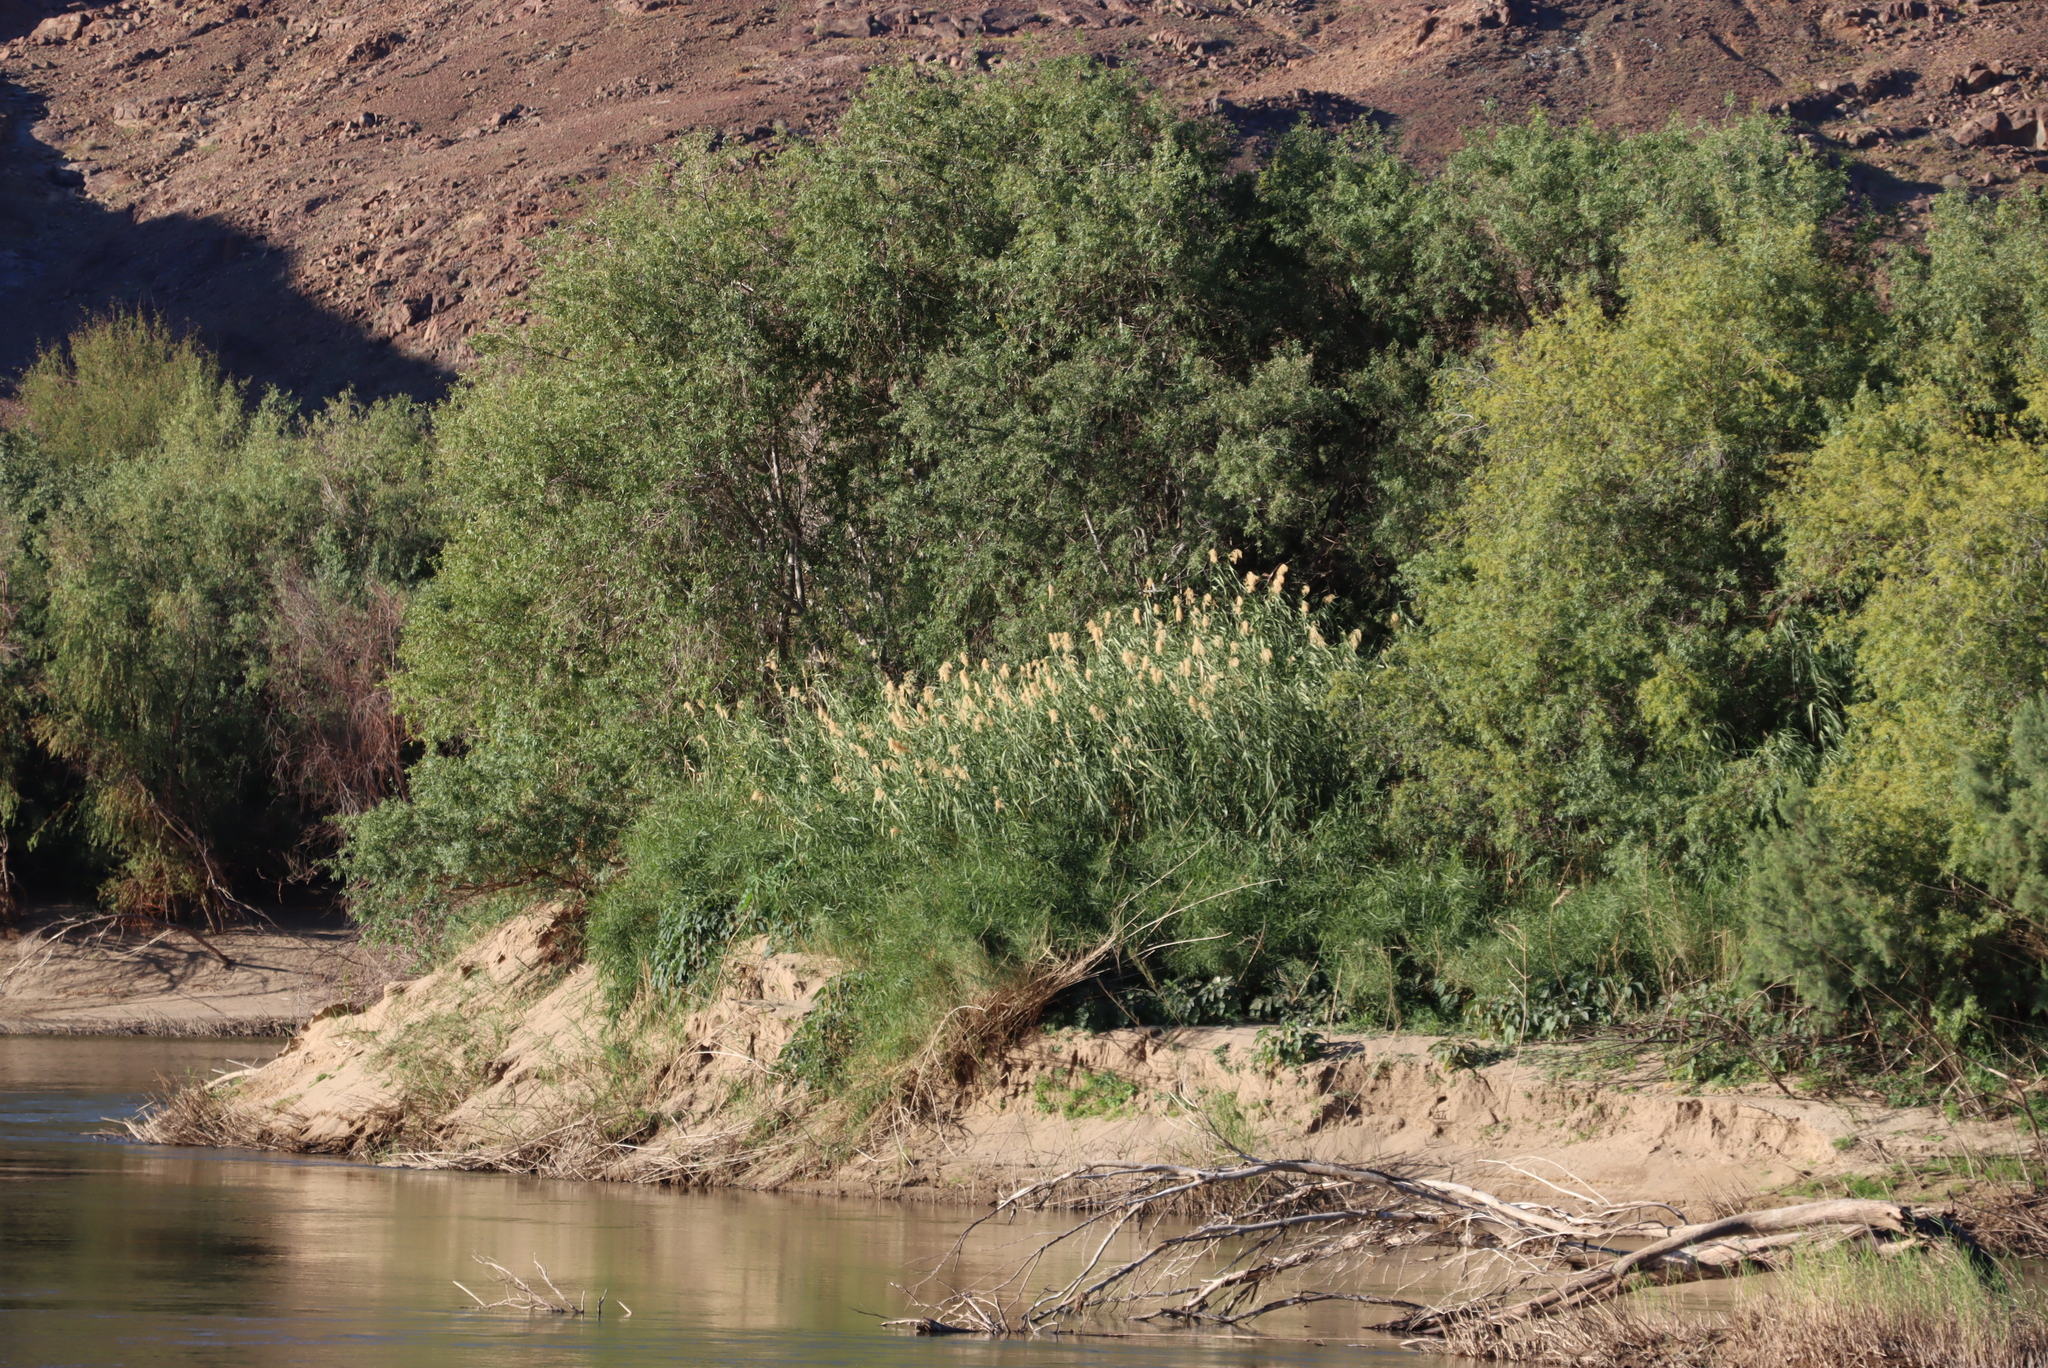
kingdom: Plantae
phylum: Tracheophyta
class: Liliopsida
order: Poales
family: Poaceae
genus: Phragmites
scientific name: Phragmites australis
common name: Common reed
